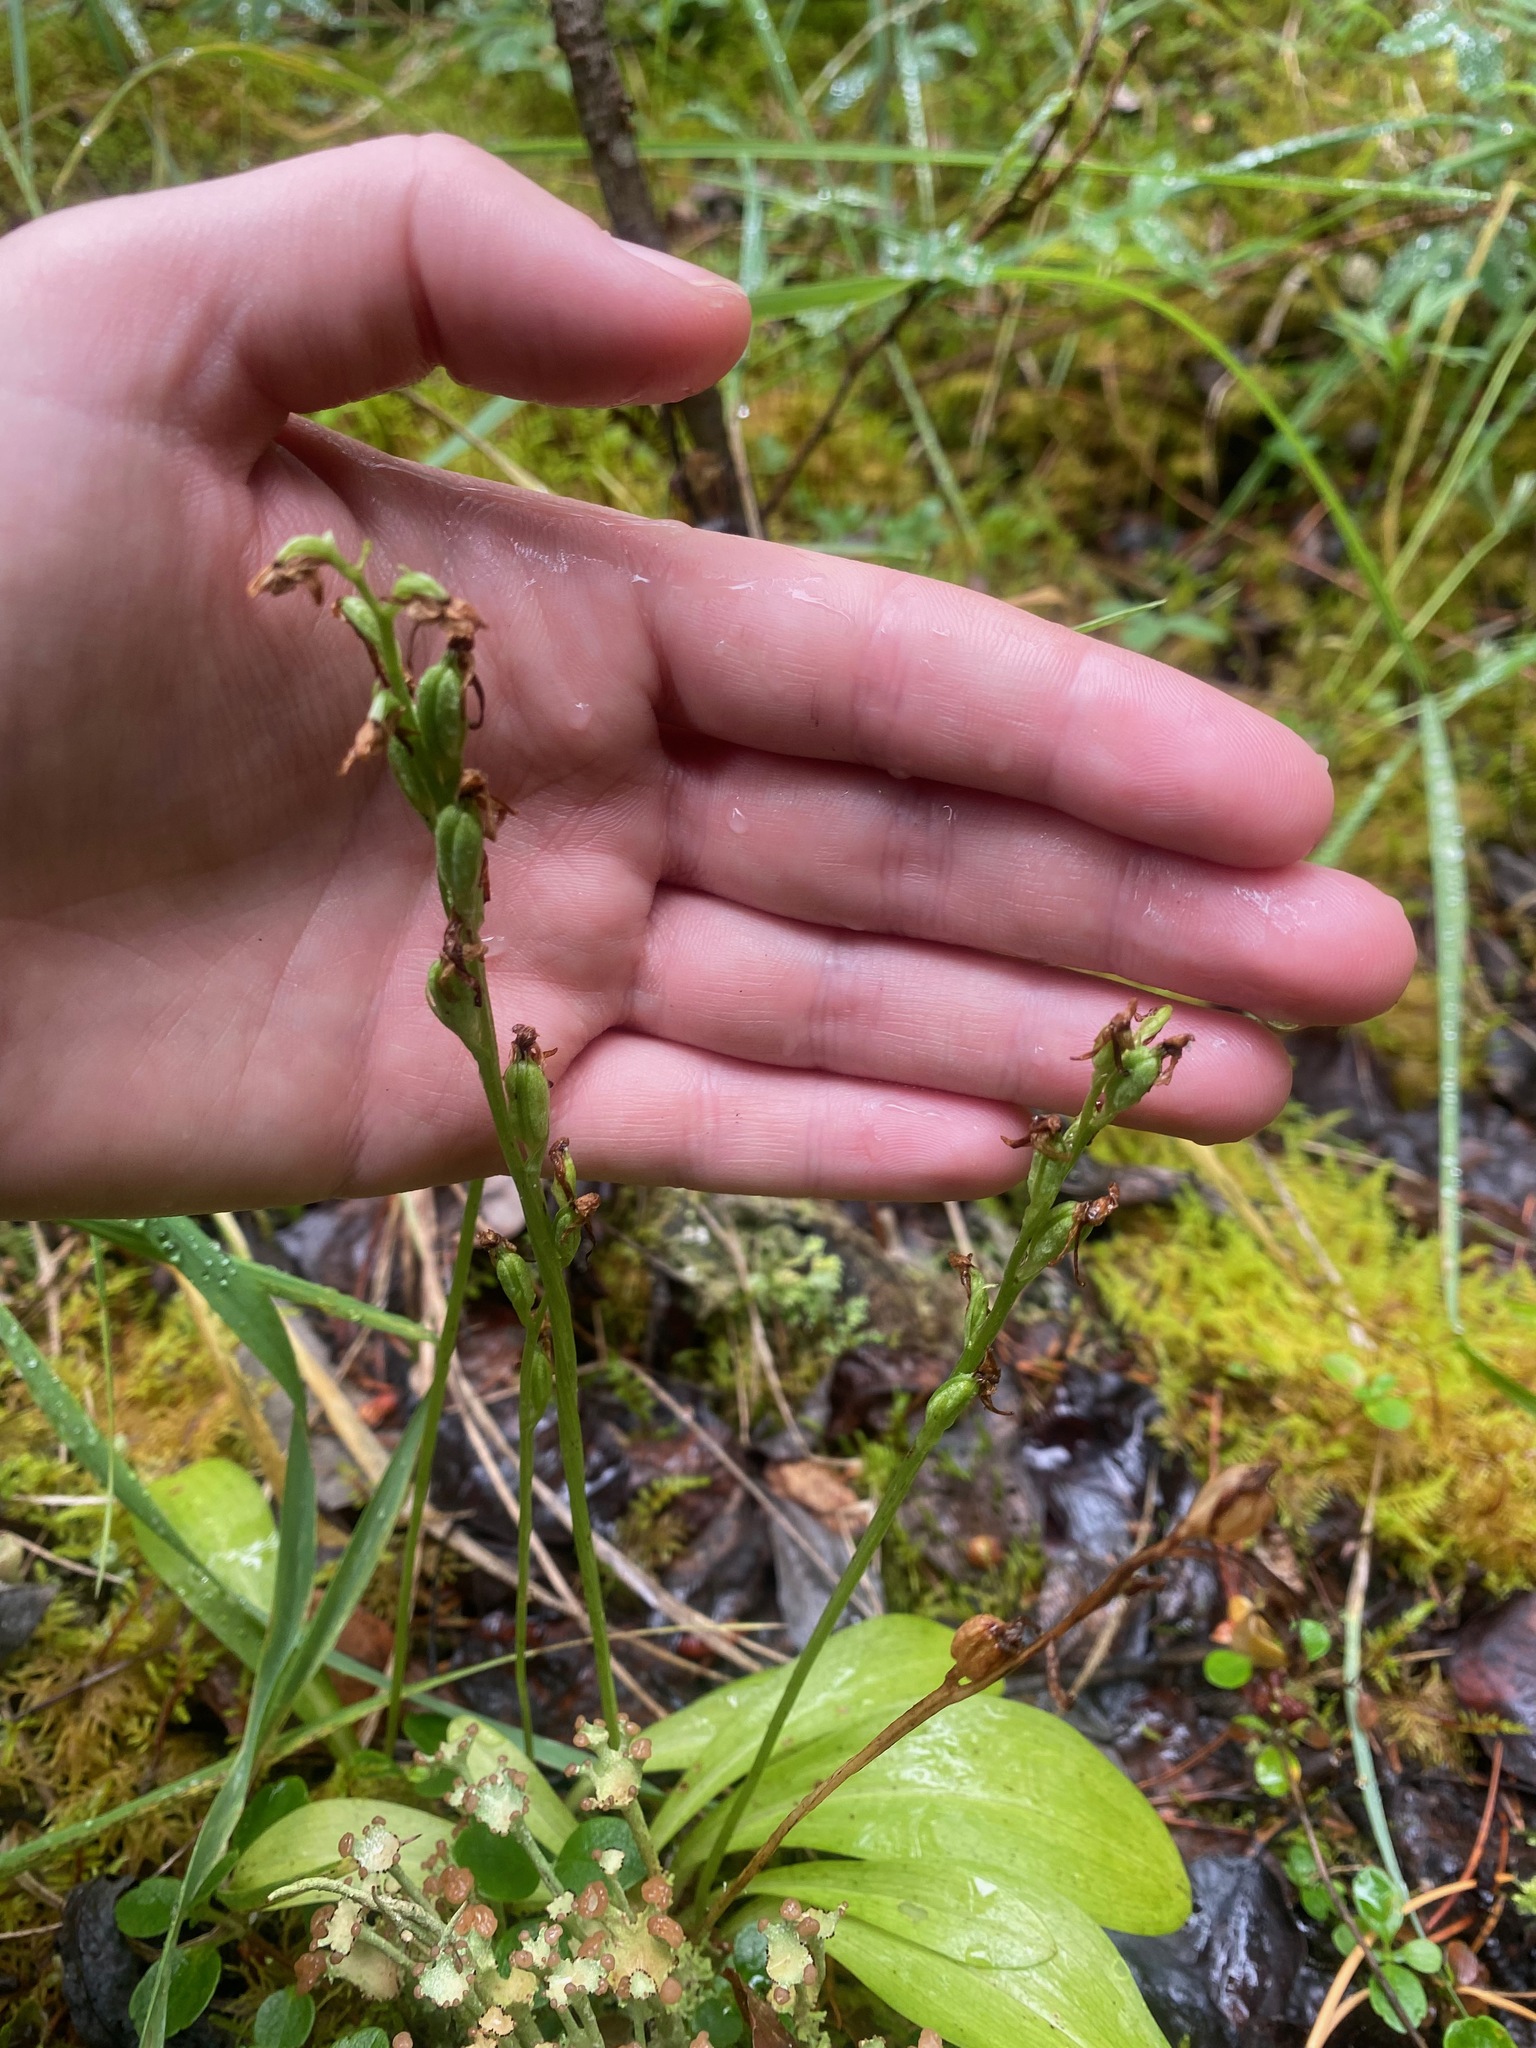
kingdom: Plantae
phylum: Tracheophyta
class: Liliopsida
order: Asparagales
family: Orchidaceae
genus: Platanthera
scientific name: Platanthera obtusata
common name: Blunt bog orchid
